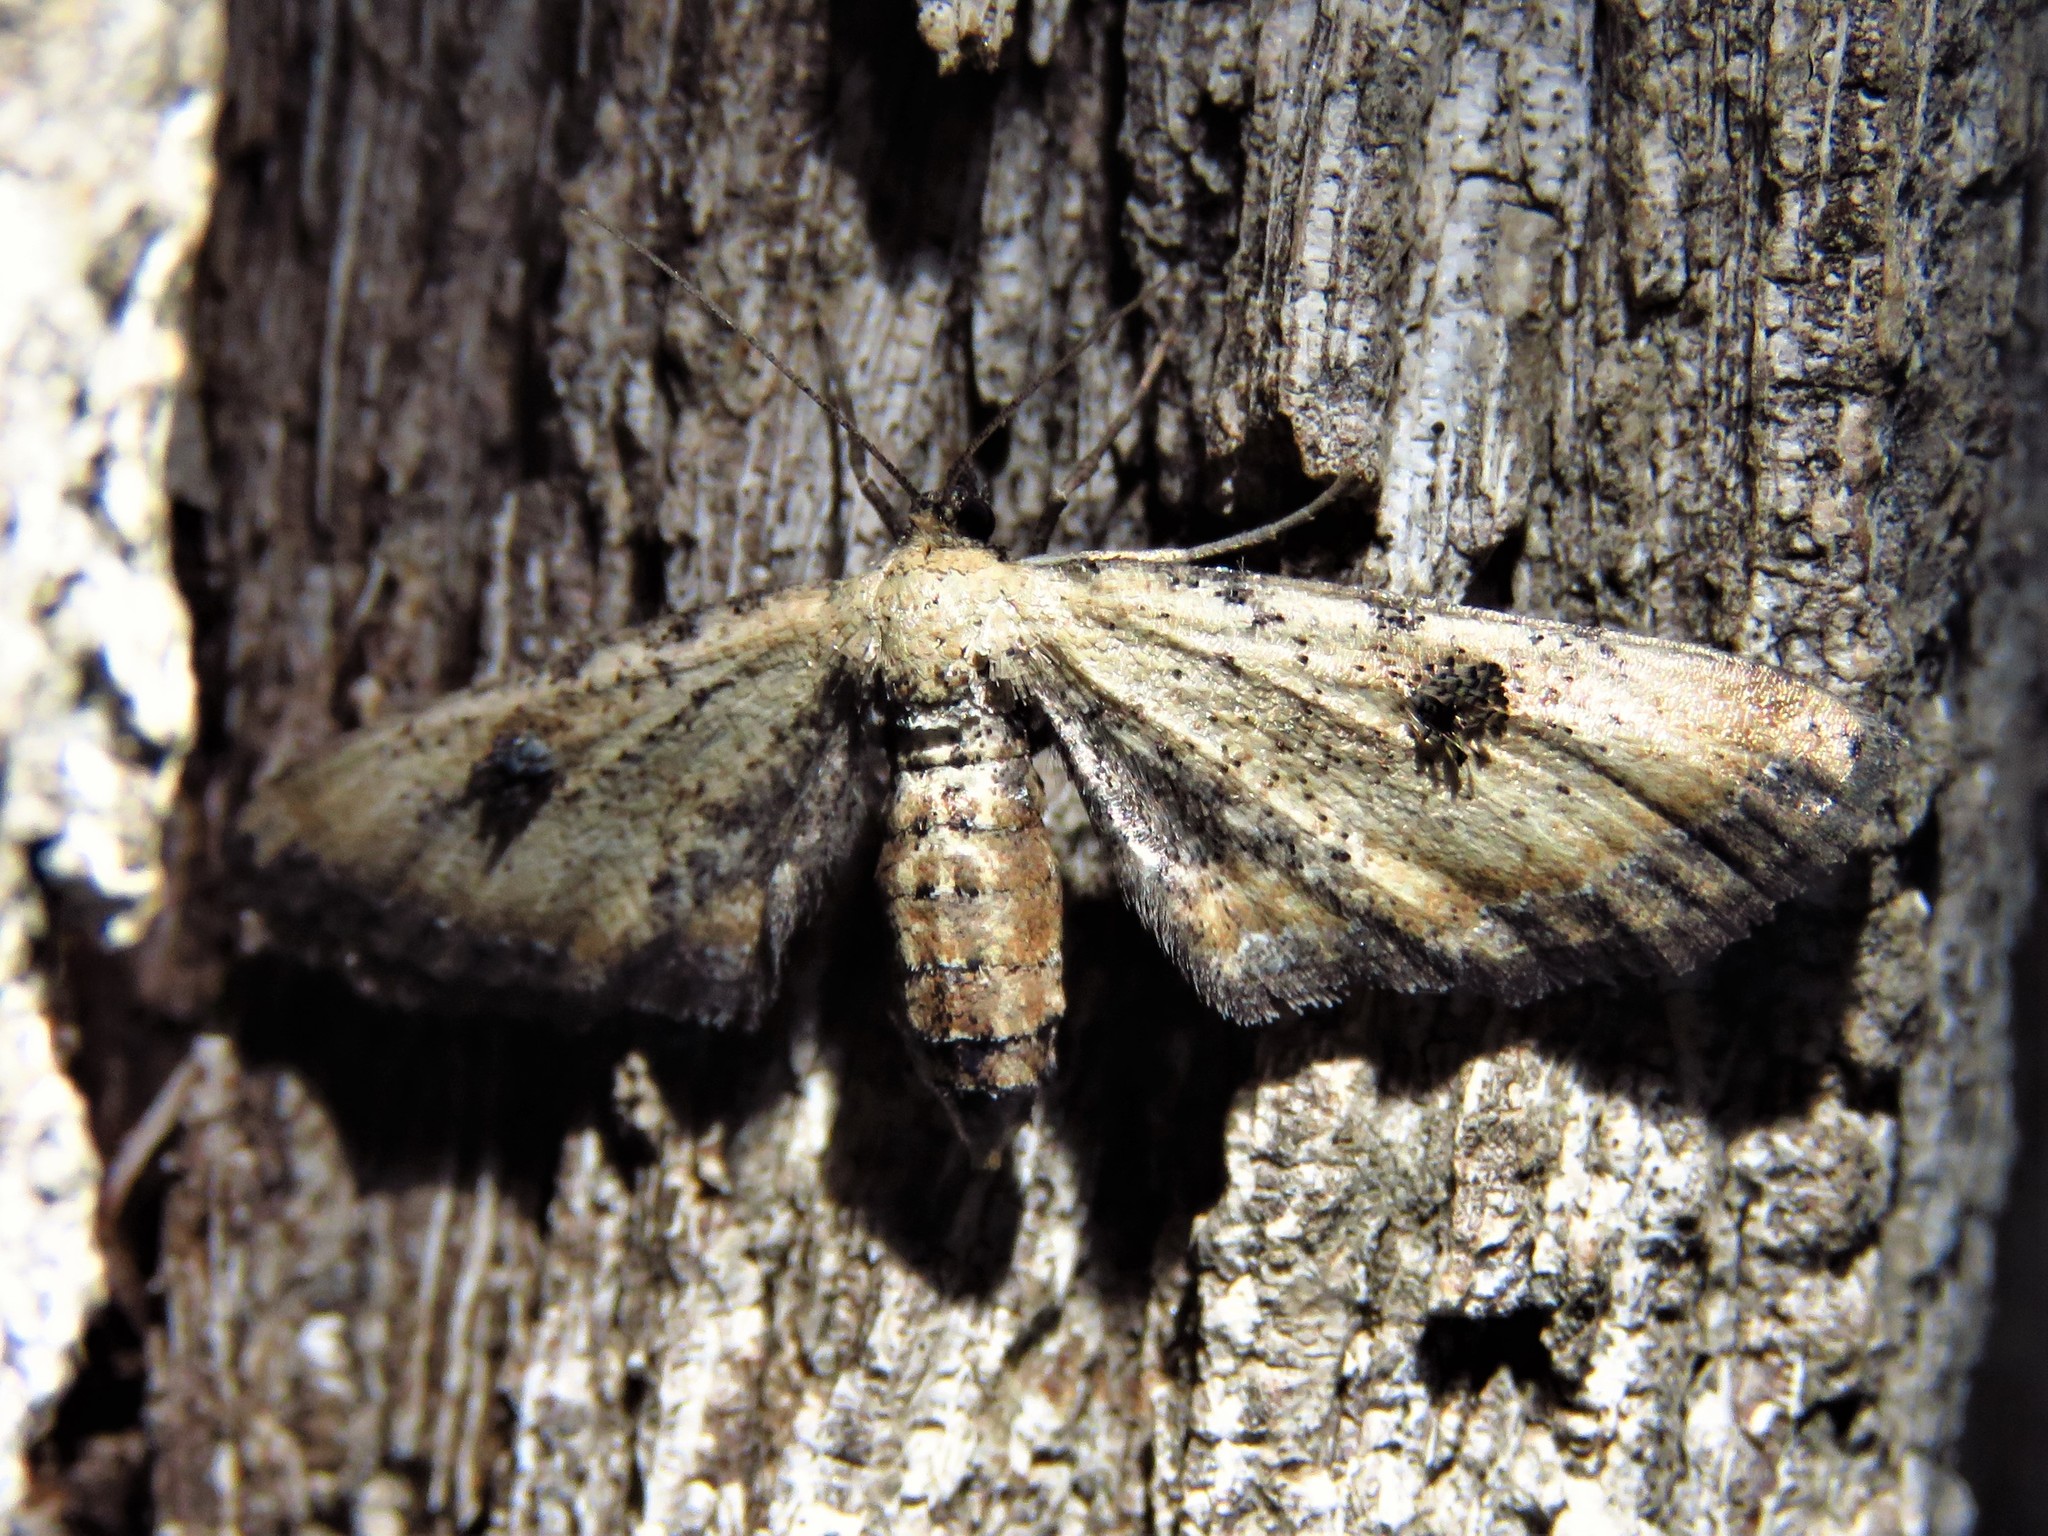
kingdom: Animalia
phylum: Arthropoda
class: Insecta
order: Lepidoptera
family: Geometridae
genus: Tornos
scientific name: Tornos scolopacinaria
